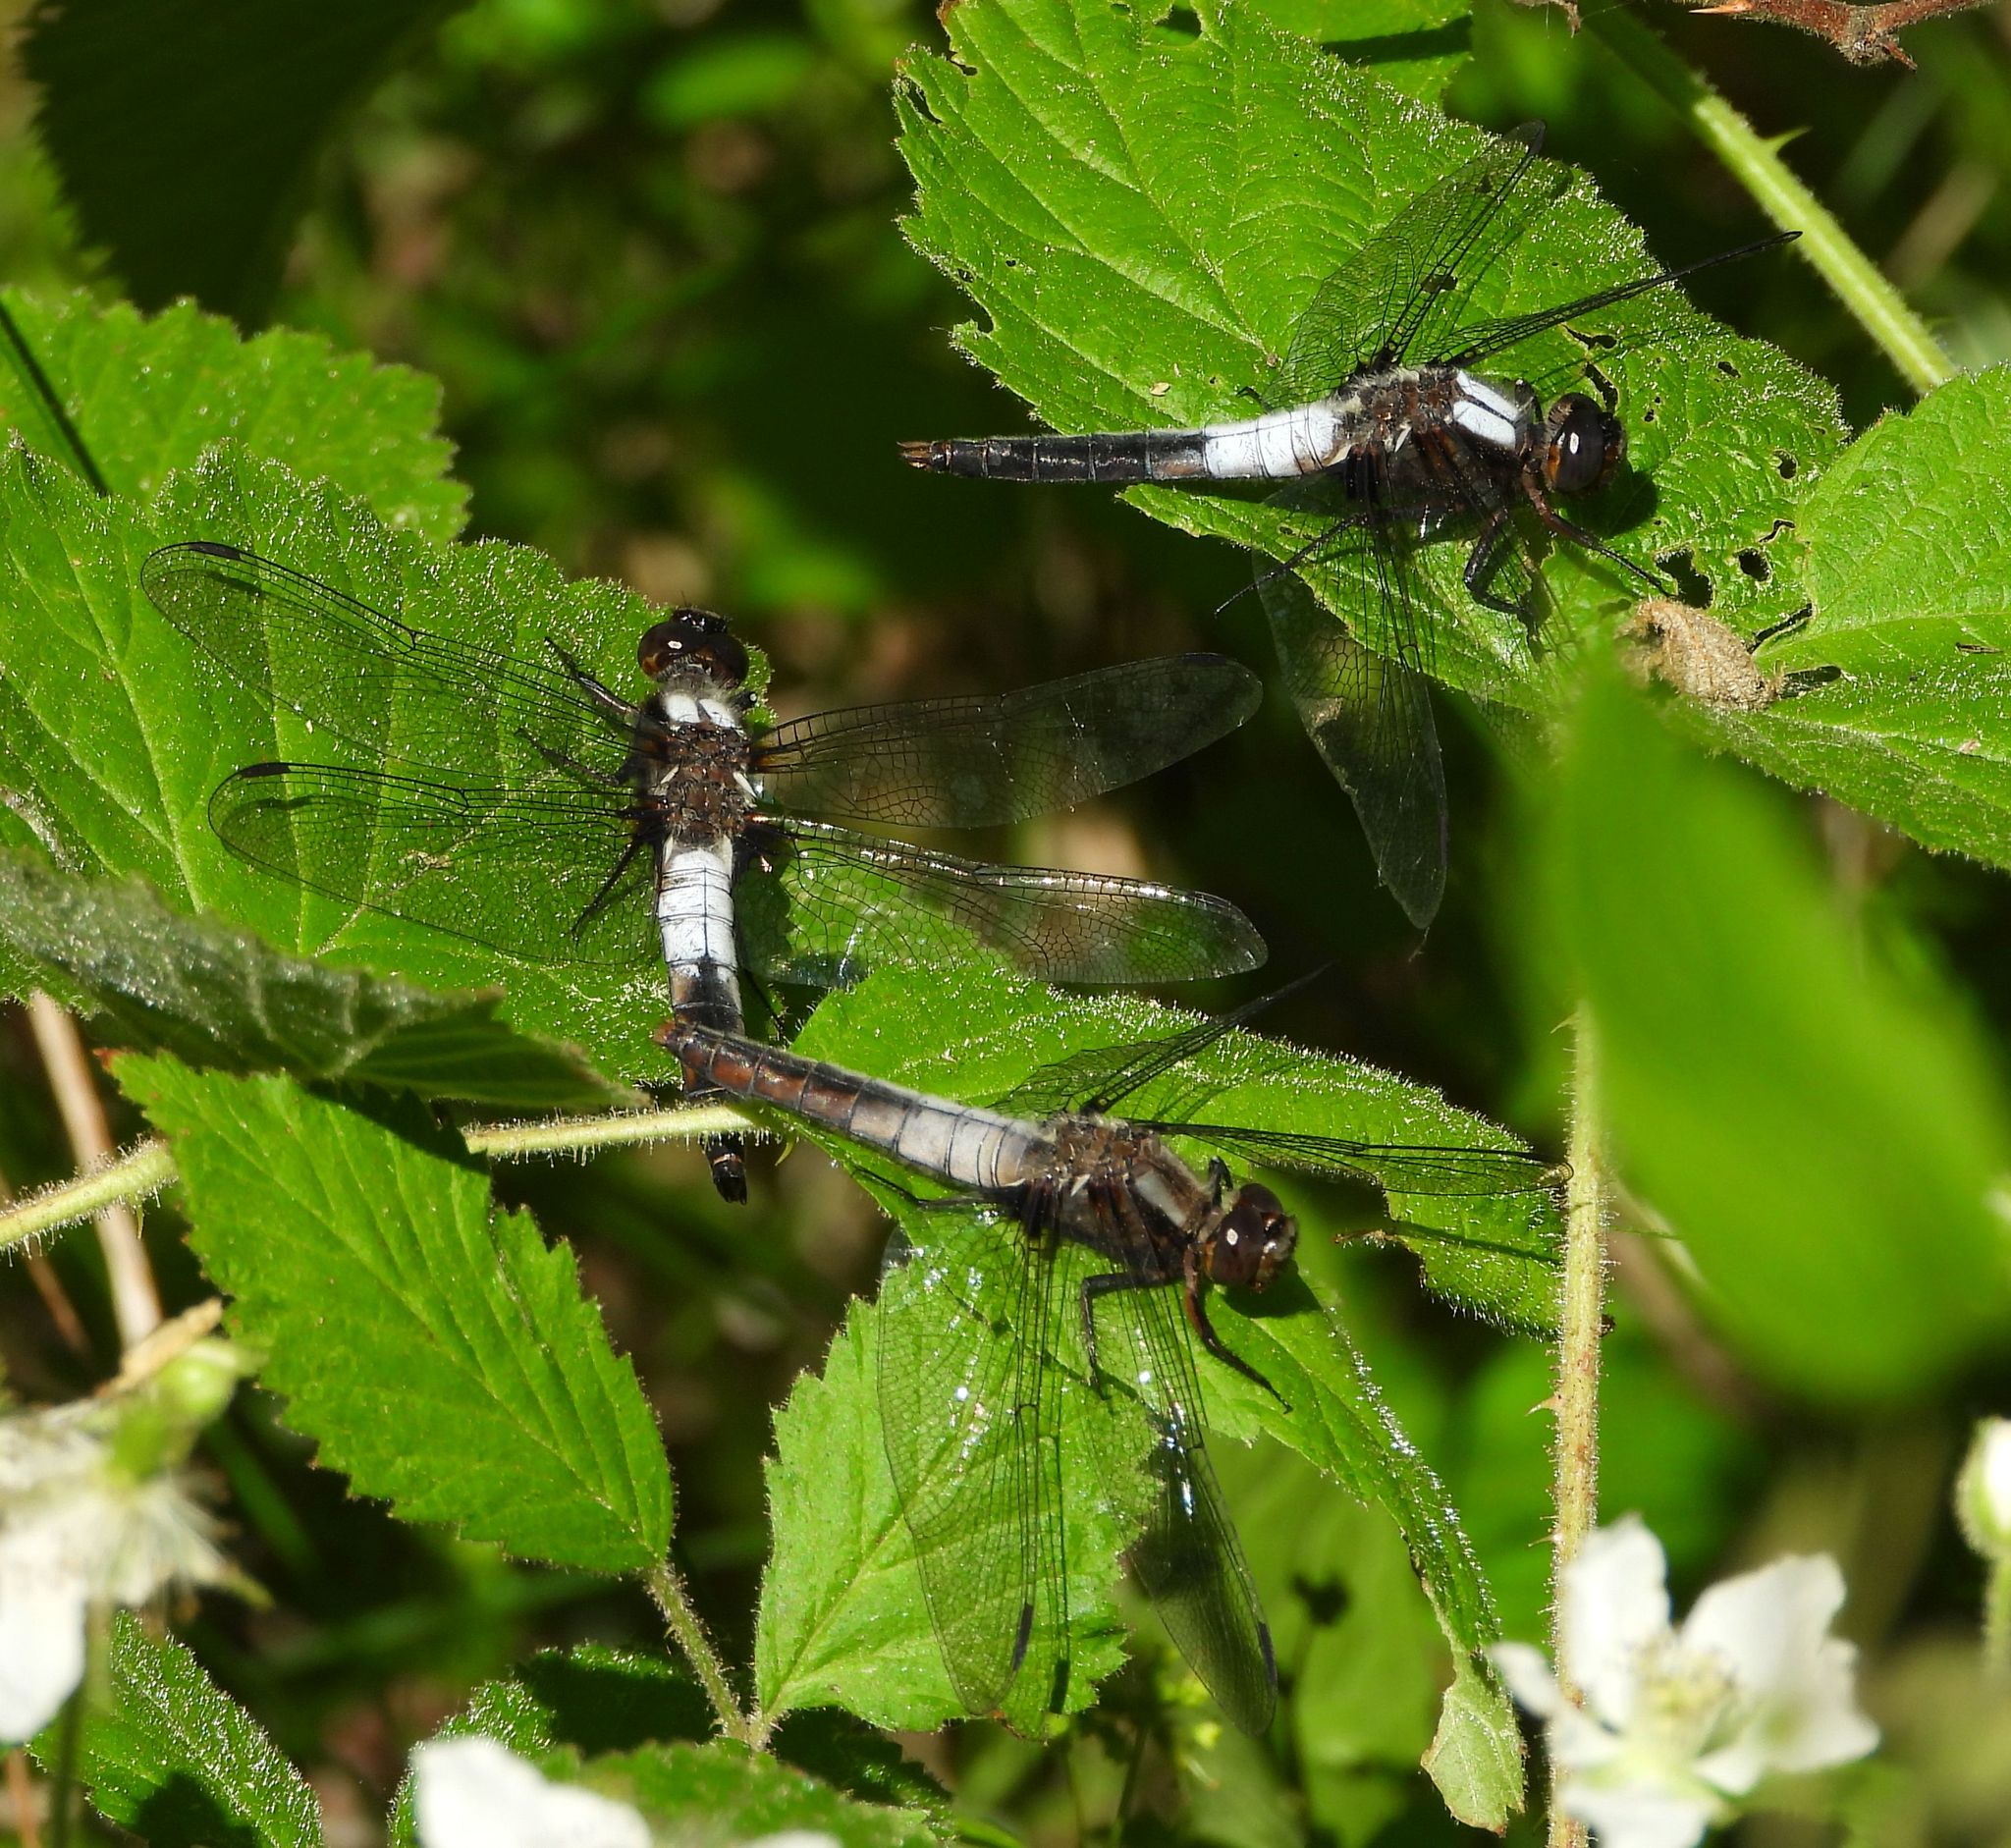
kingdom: Animalia
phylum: Arthropoda
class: Insecta
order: Odonata
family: Libellulidae
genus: Ladona
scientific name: Ladona julia
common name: Chalk-fronted corporal
